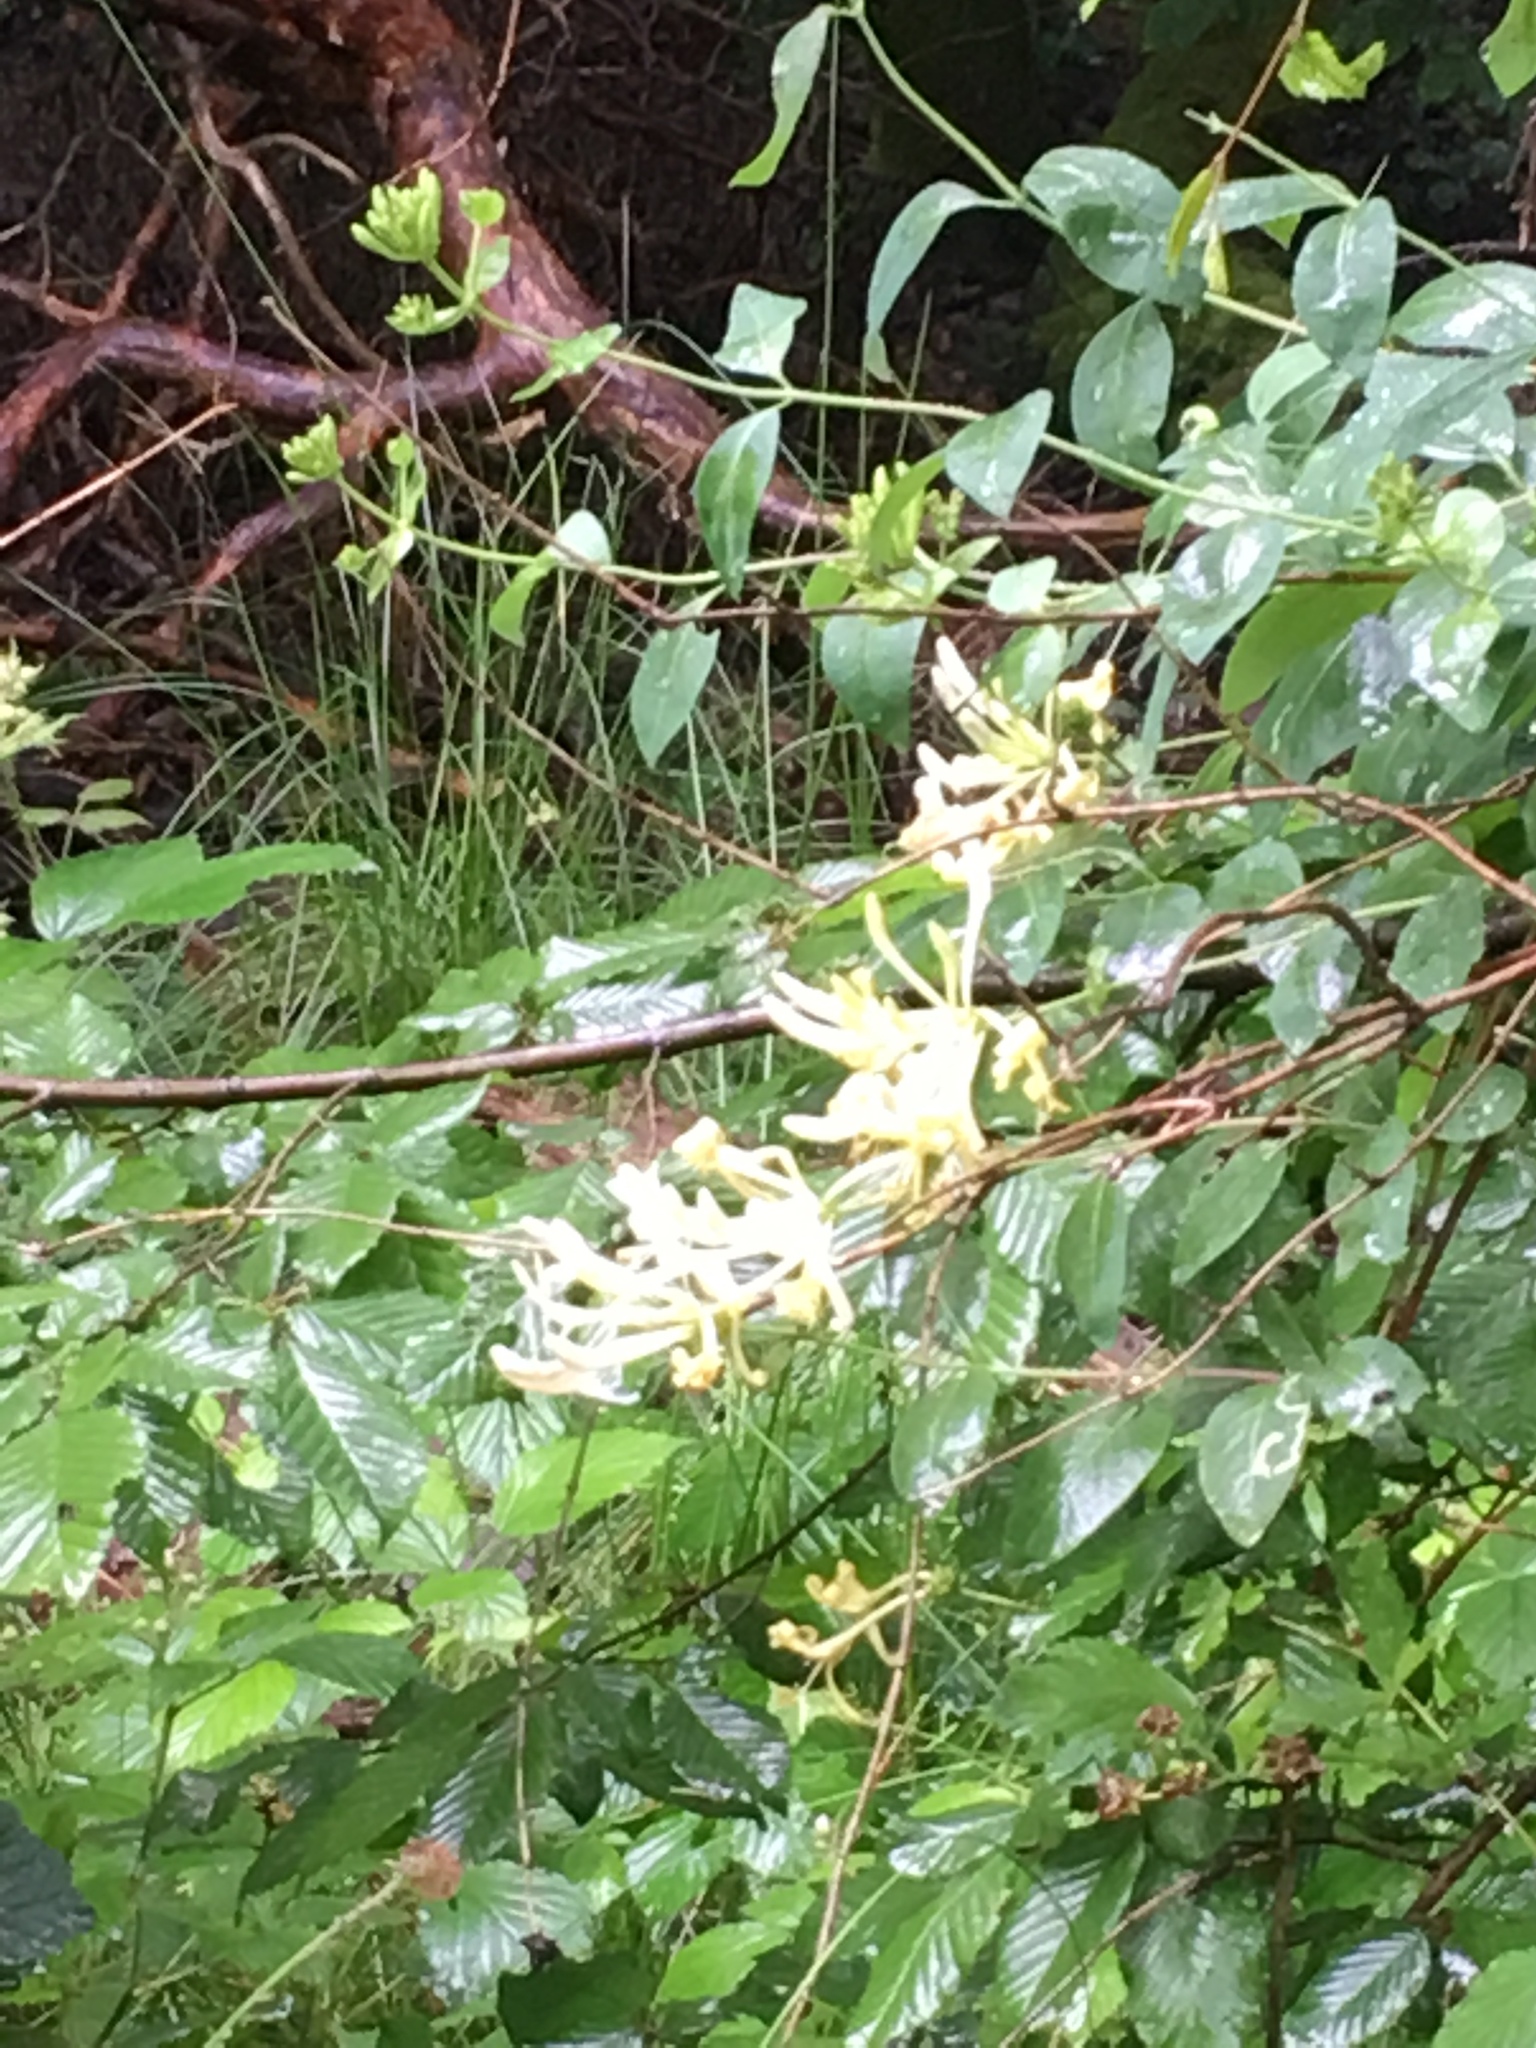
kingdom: Plantae
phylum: Tracheophyta
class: Magnoliopsida
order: Dipsacales
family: Caprifoliaceae
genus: Lonicera
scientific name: Lonicera periclymenum
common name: European honeysuckle
